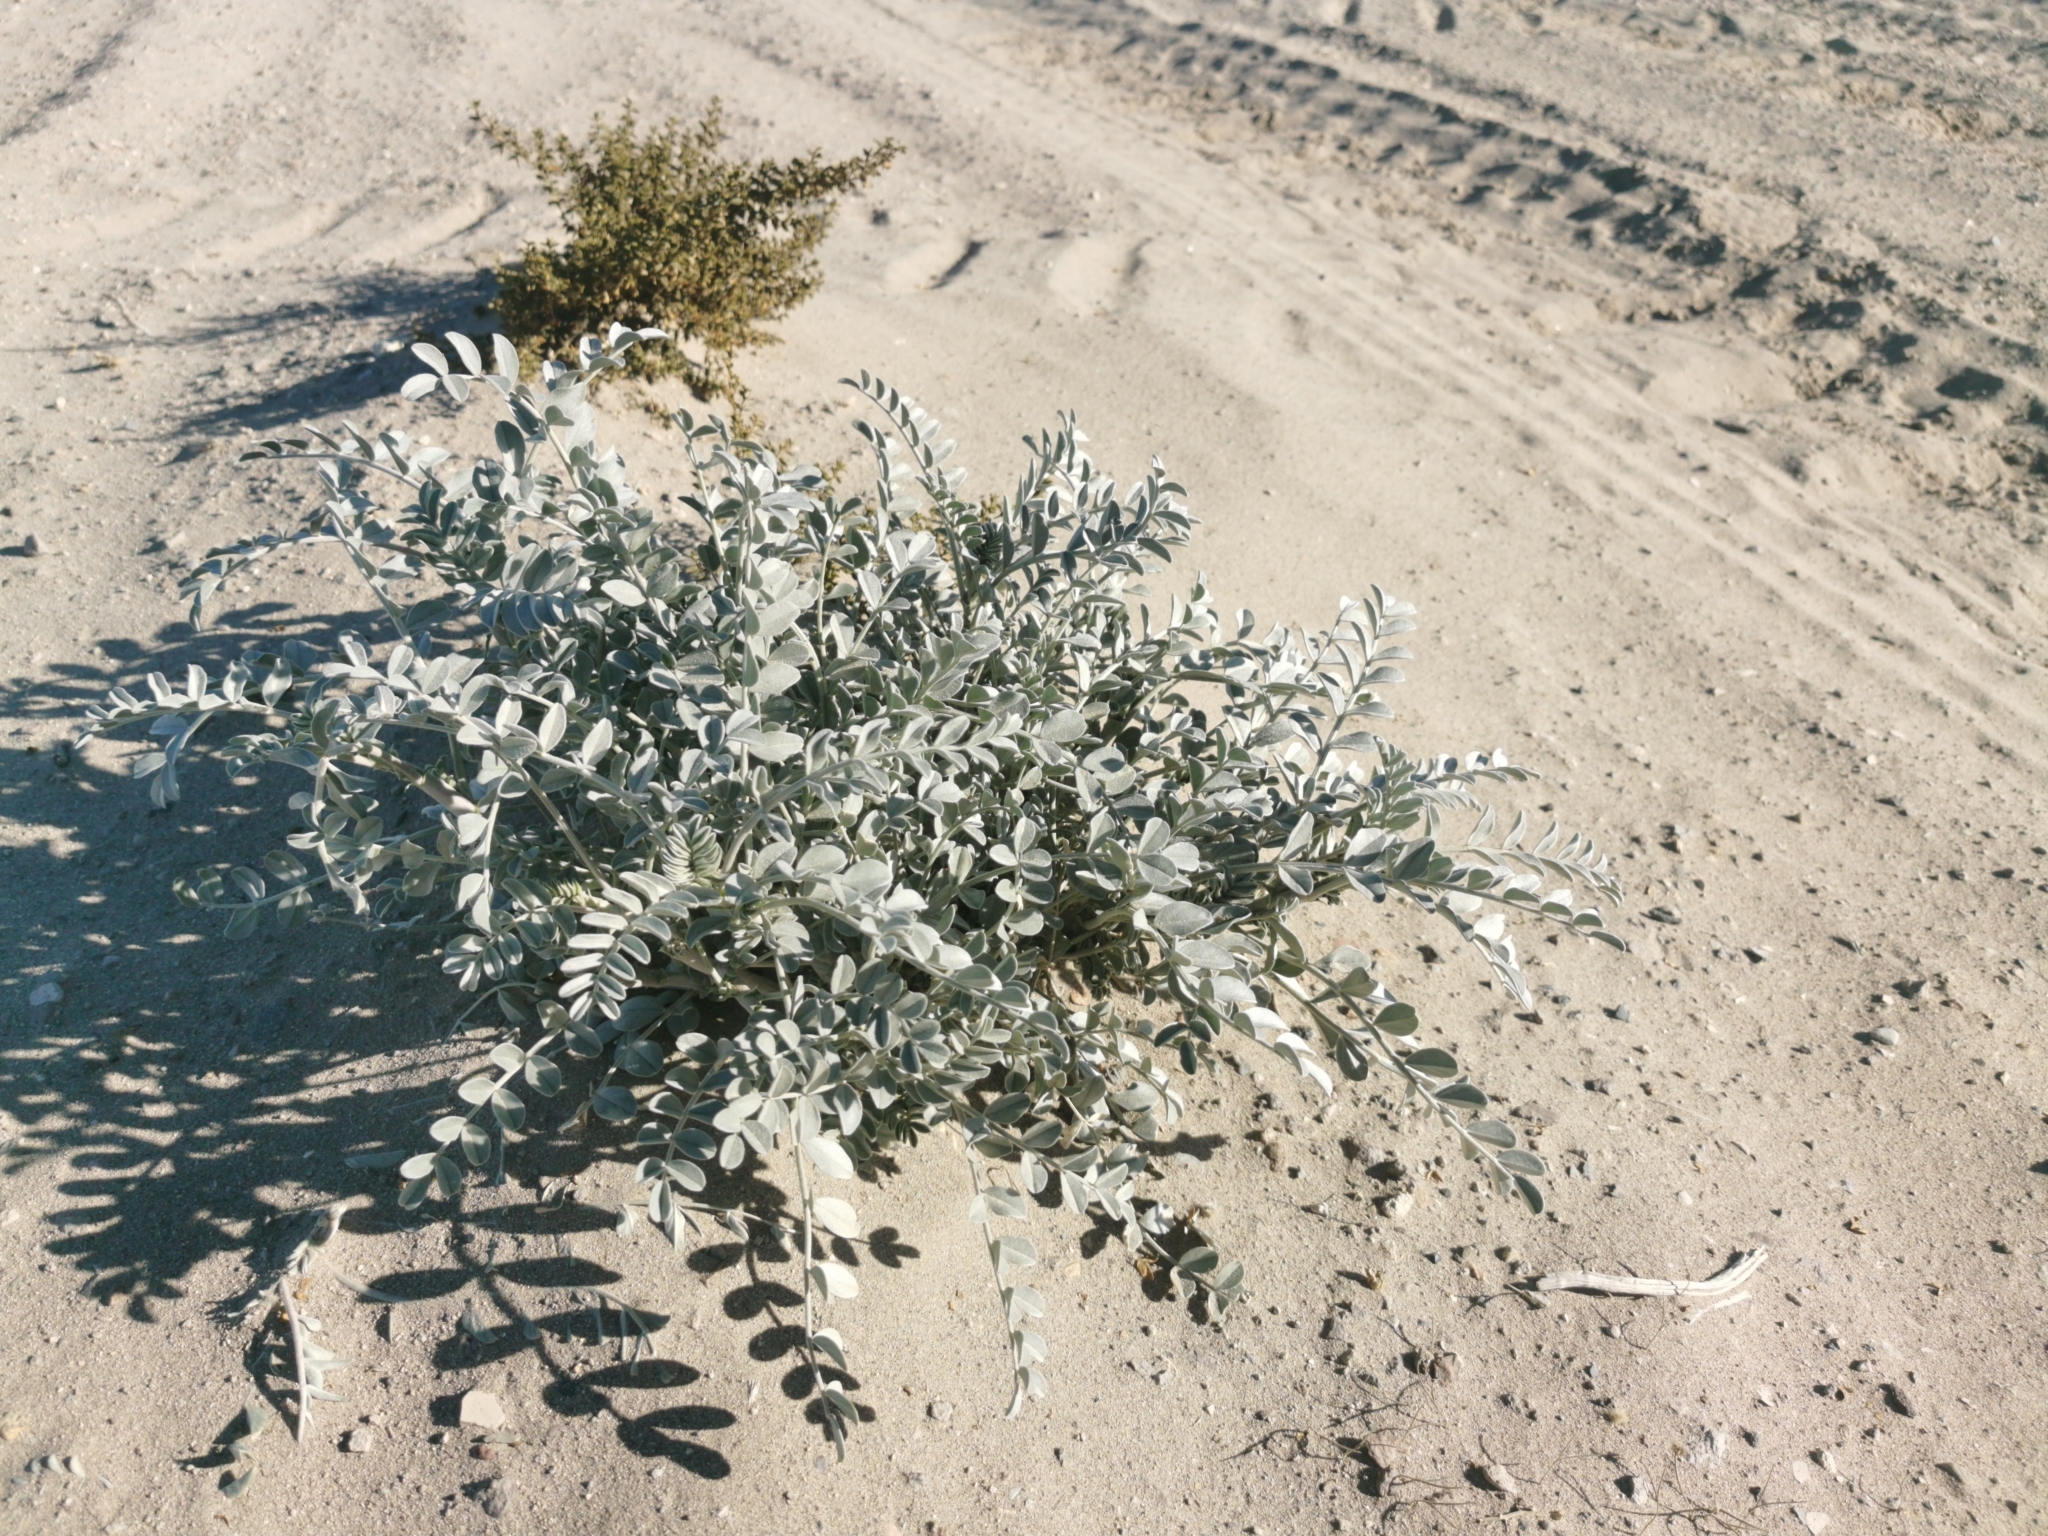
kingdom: Plantae
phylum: Tracheophyta
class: Magnoliopsida
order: Fabales
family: Fabaceae
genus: Astragalus
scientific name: Astragalus lentiginosus
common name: Freckled milkvetch
